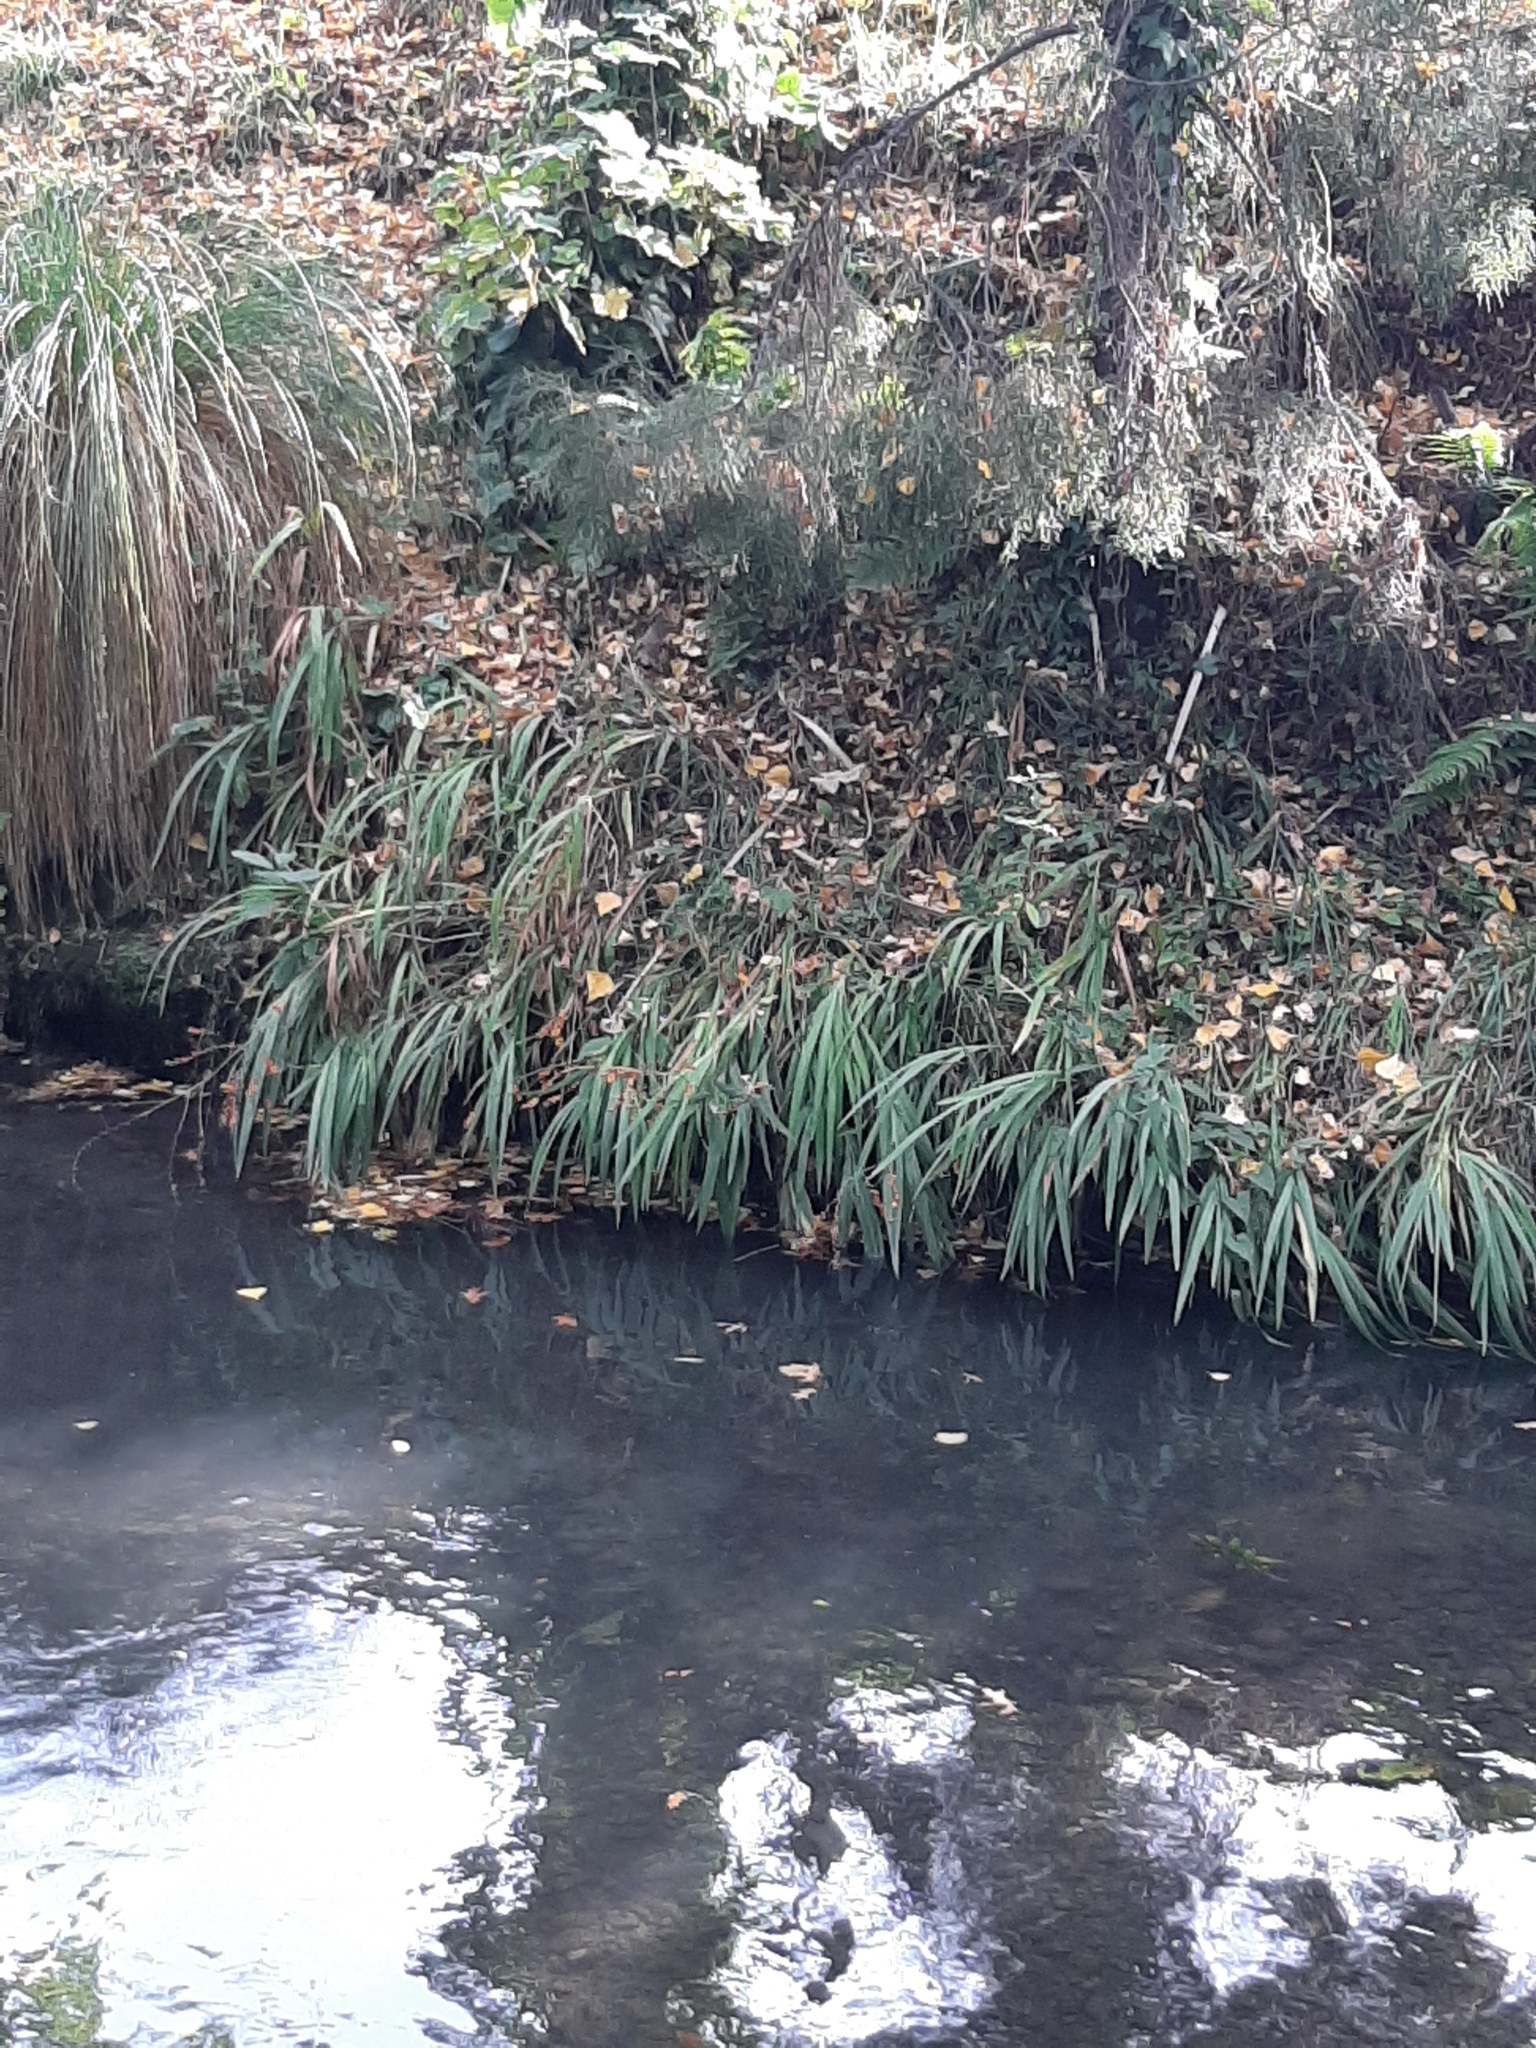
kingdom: Plantae
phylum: Tracheophyta
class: Liliopsida
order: Asparagales
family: Iridaceae
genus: Crocosmia
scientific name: Crocosmia crocosmiiflora
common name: Montbretia
